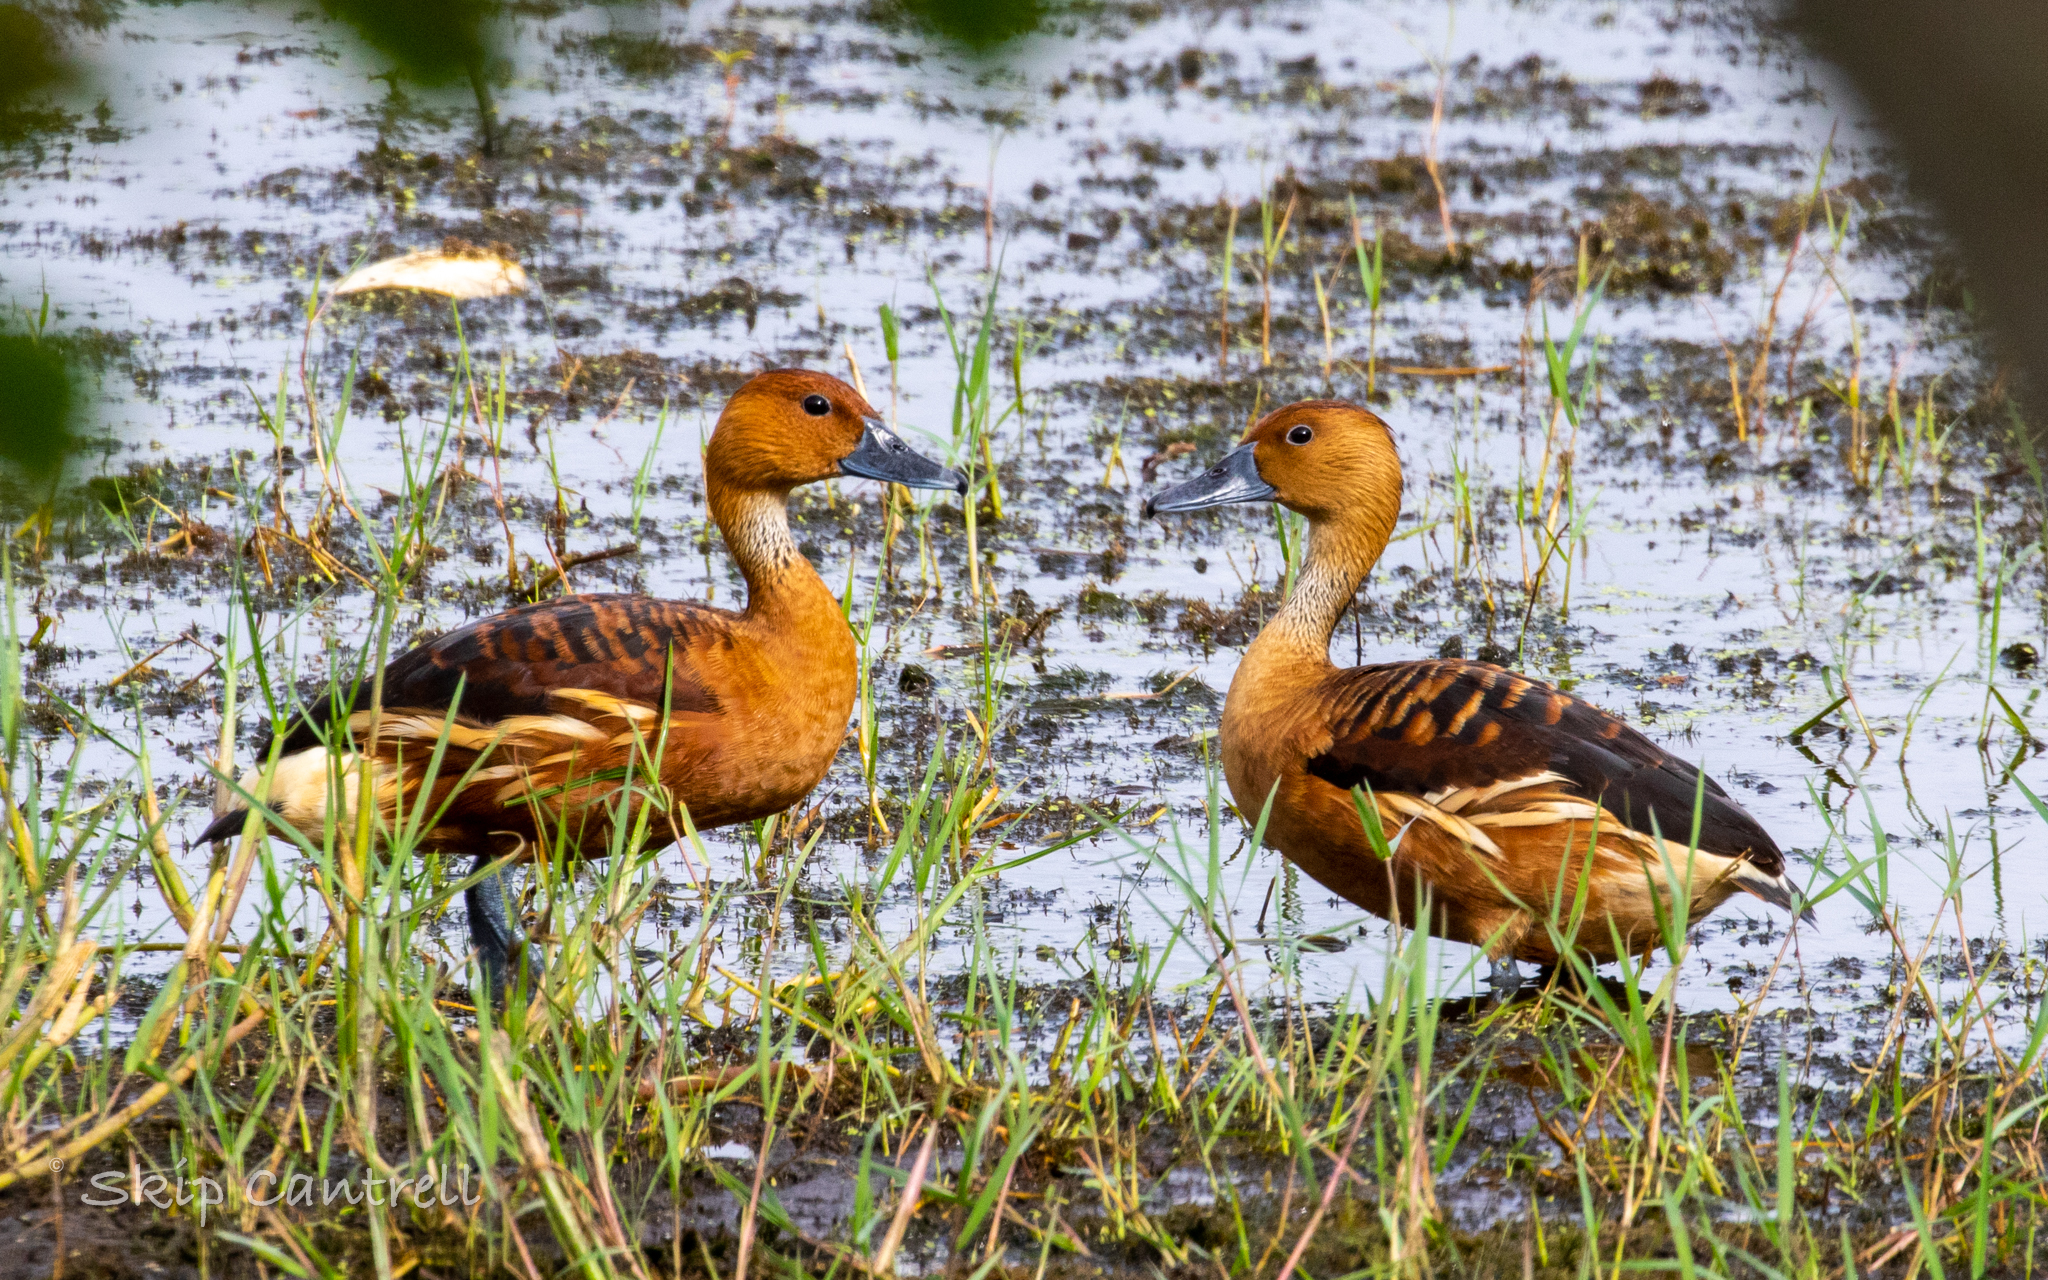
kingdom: Animalia
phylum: Chordata
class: Aves
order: Anseriformes
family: Anatidae
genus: Dendrocygna
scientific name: Dendrocygna bicolor
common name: Fulvous whistling duck
